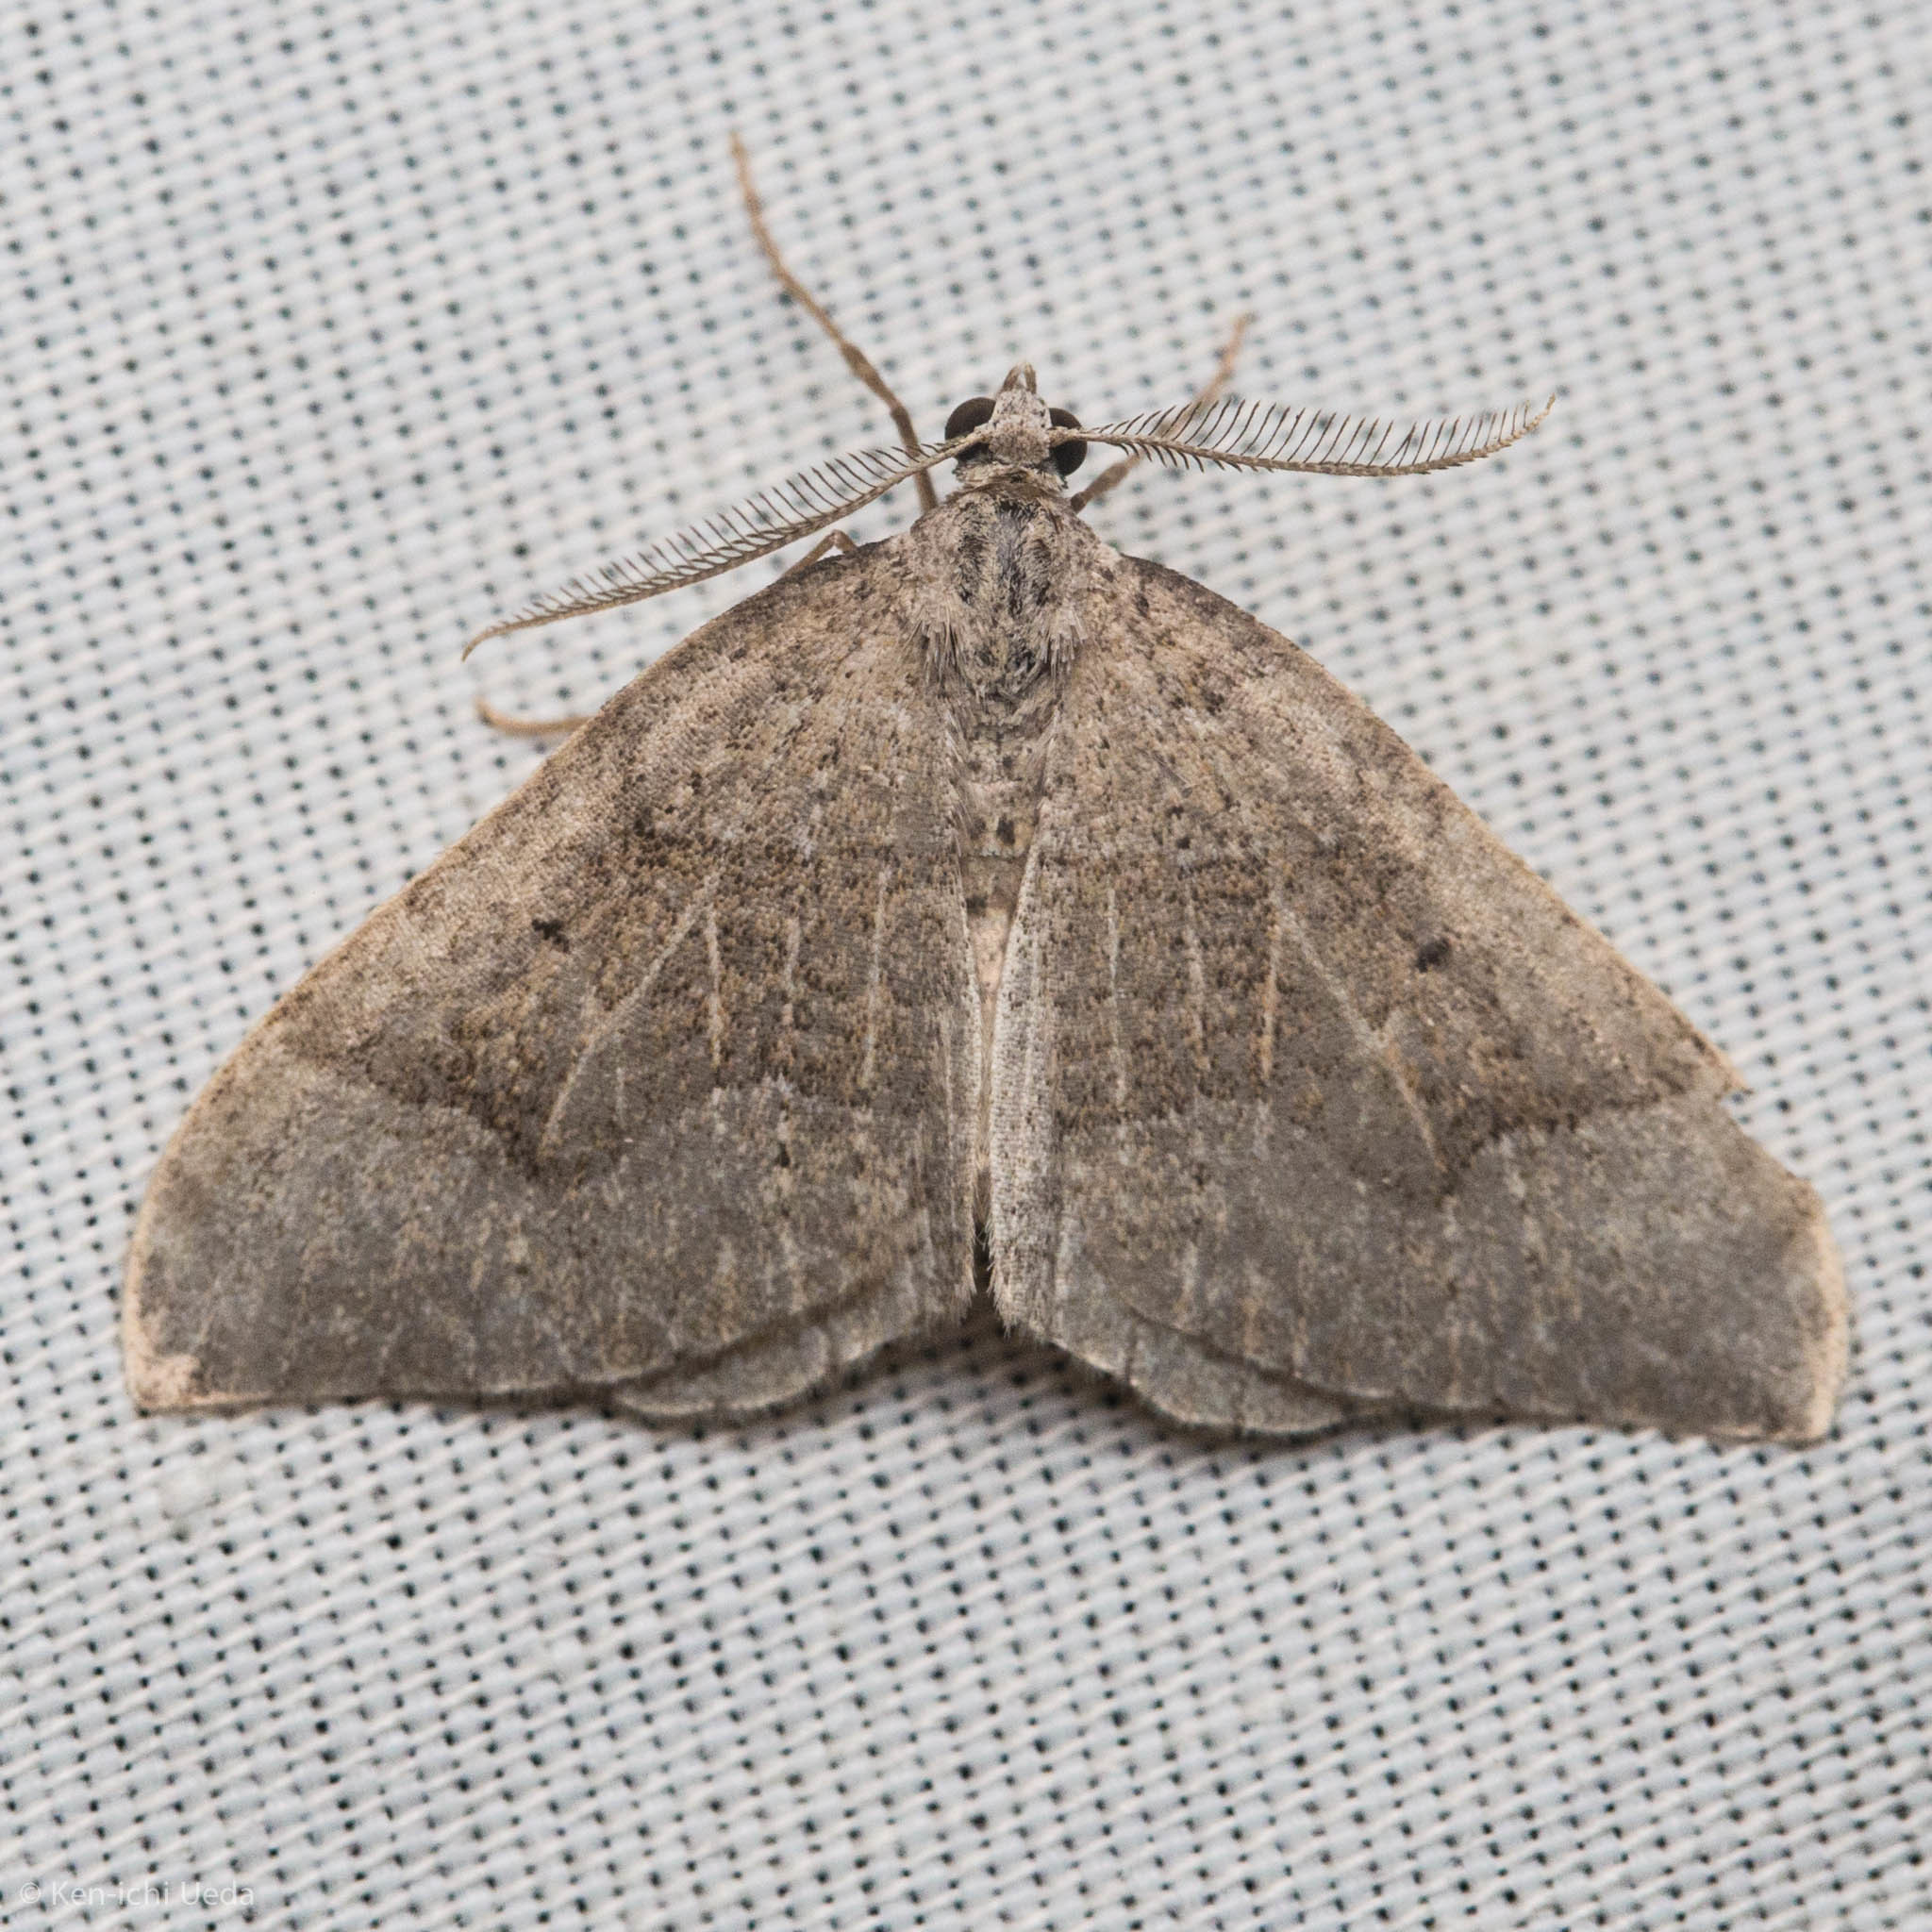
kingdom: Animalia
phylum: Arthropoda
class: Insecta
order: Lepidoptera
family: Geometridae
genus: Zenophleps
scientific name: Zenophleps lignicolorata
